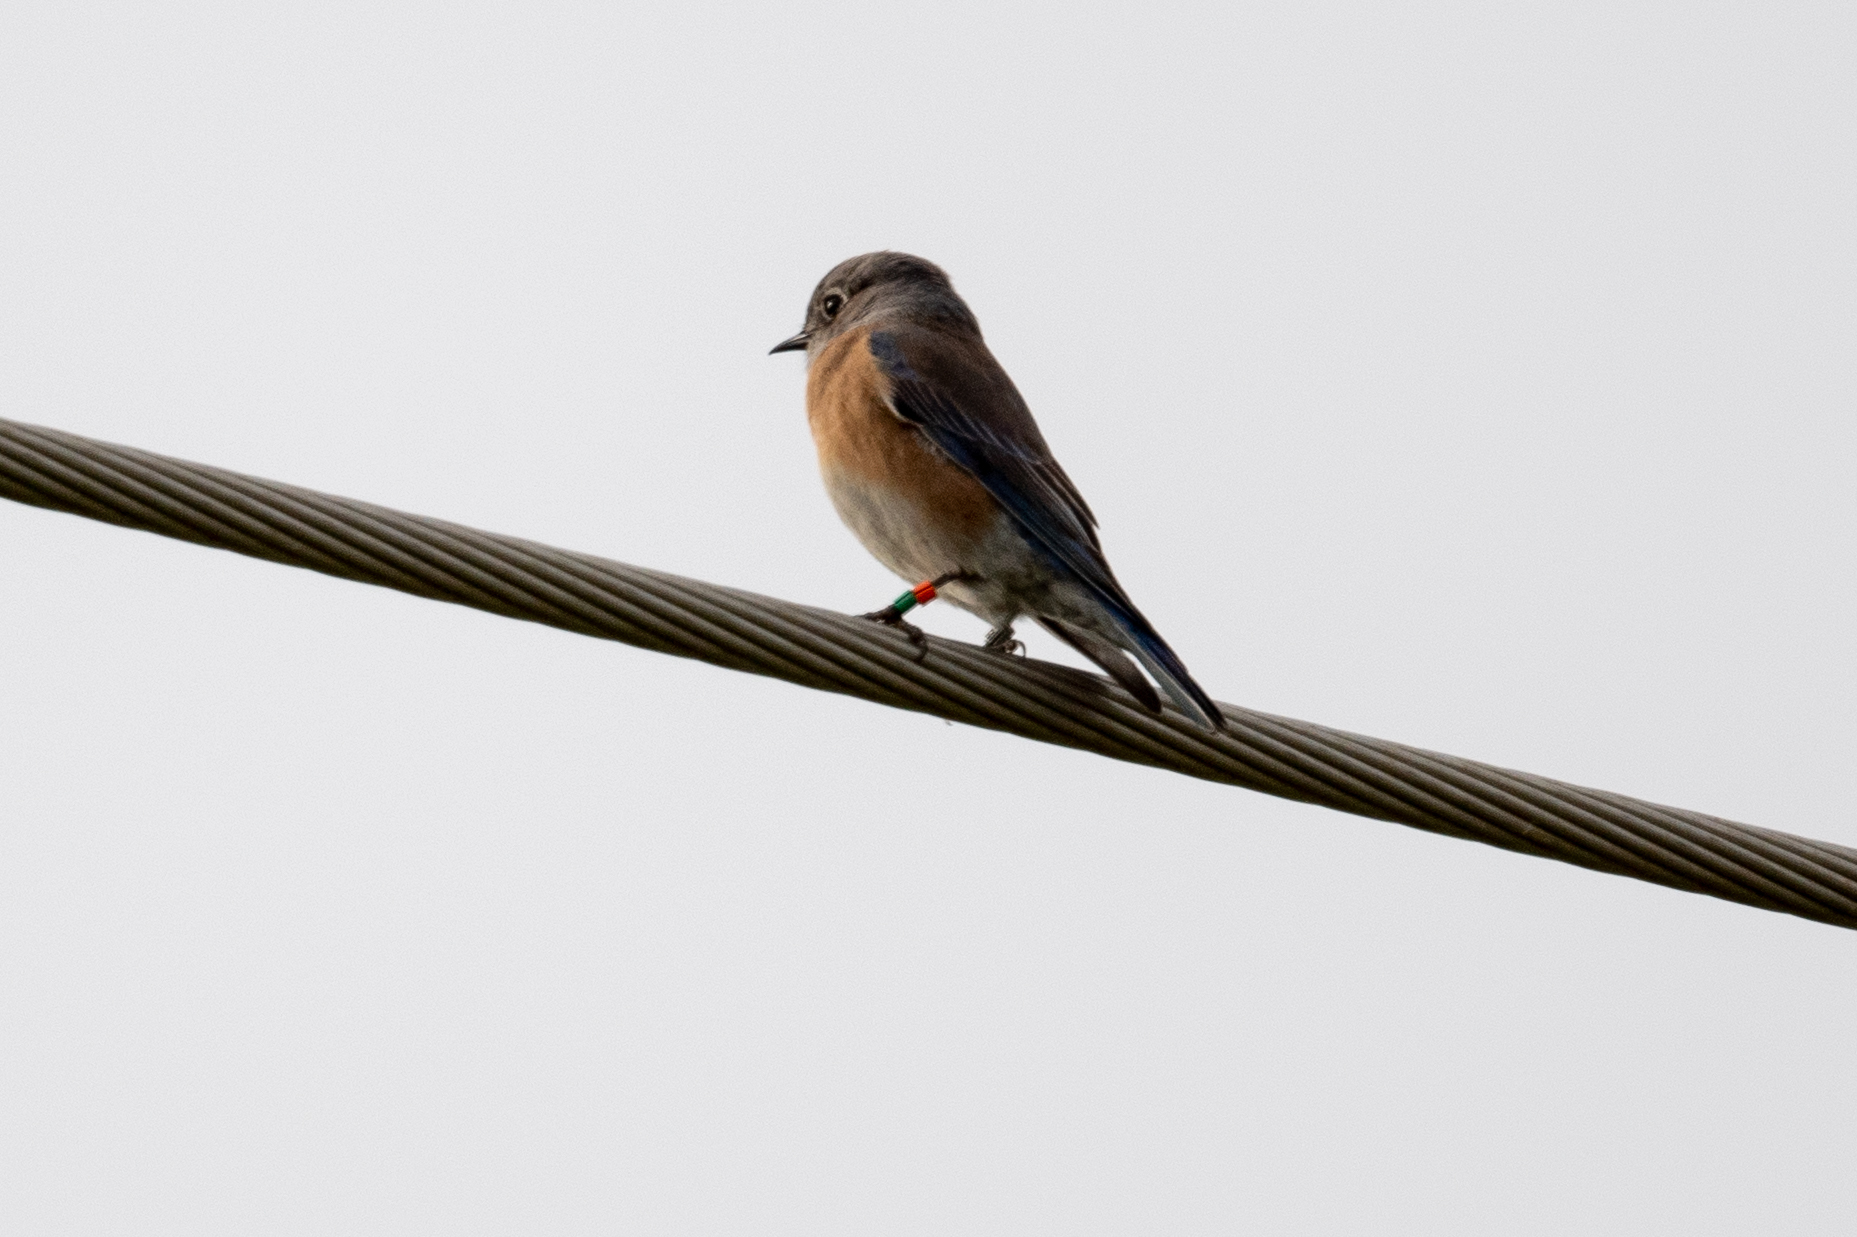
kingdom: Animalia
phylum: Chordata
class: Aves
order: Passeriformes
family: Turdidae
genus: Sialia
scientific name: Sialia mexicana
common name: Western bluebird
